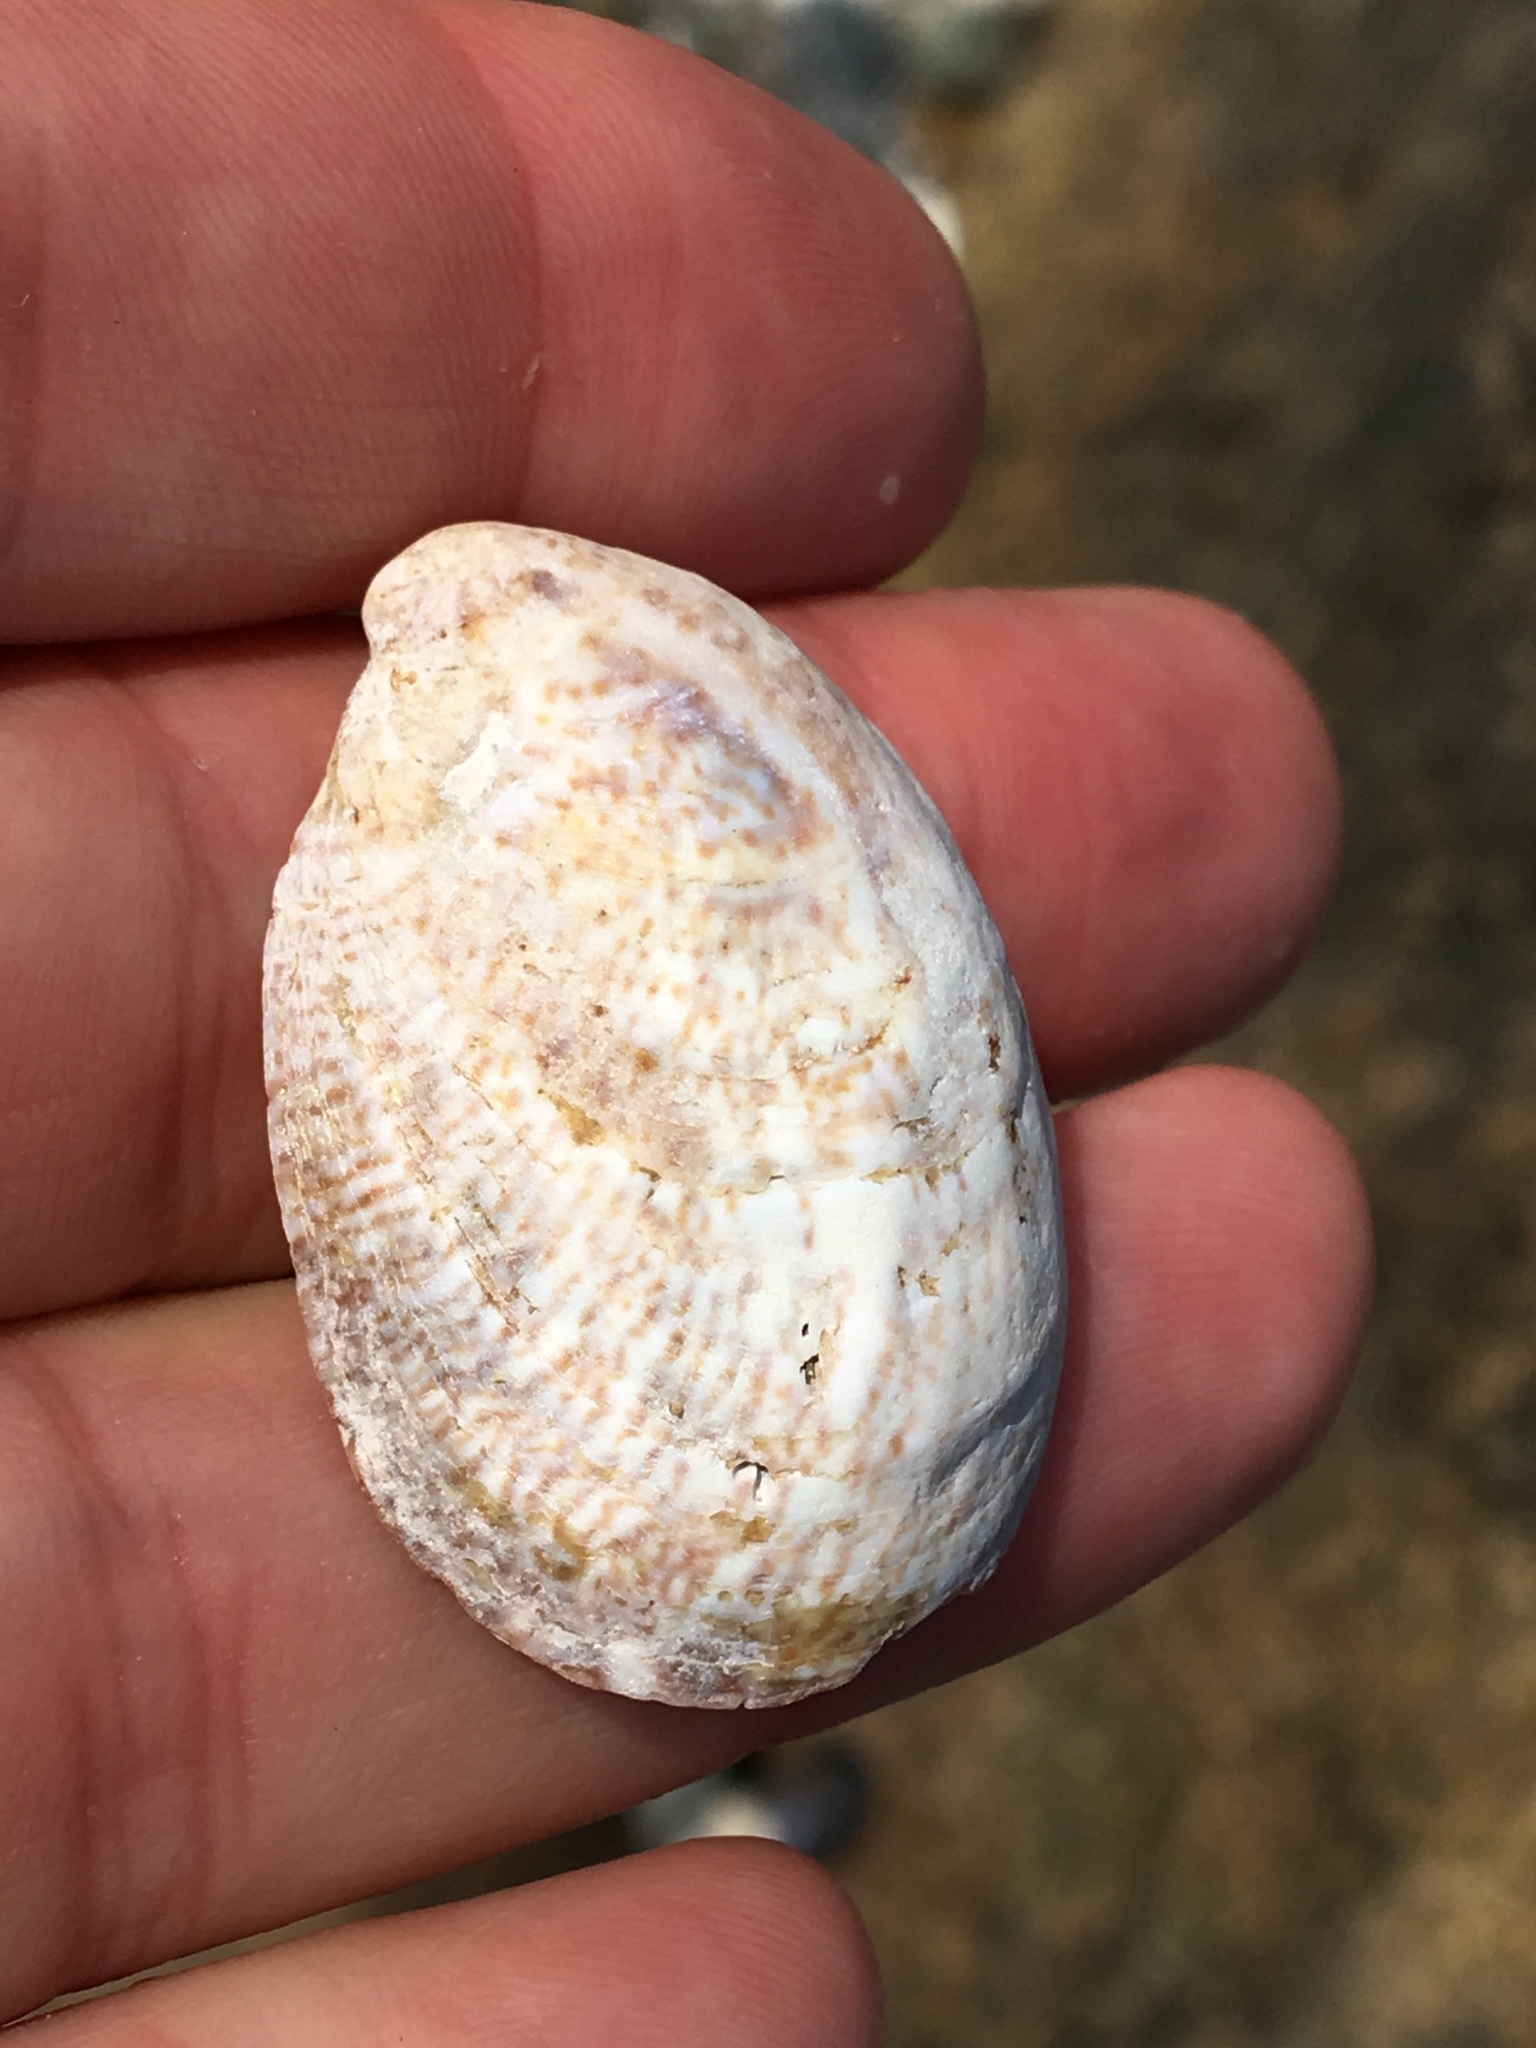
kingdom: Animalia
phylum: Mollusca
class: Gastropoda
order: Littorinimorpha
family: Calyptraeidae
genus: Crepidula
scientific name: Crepidula fornicata
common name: Slipper limpet
